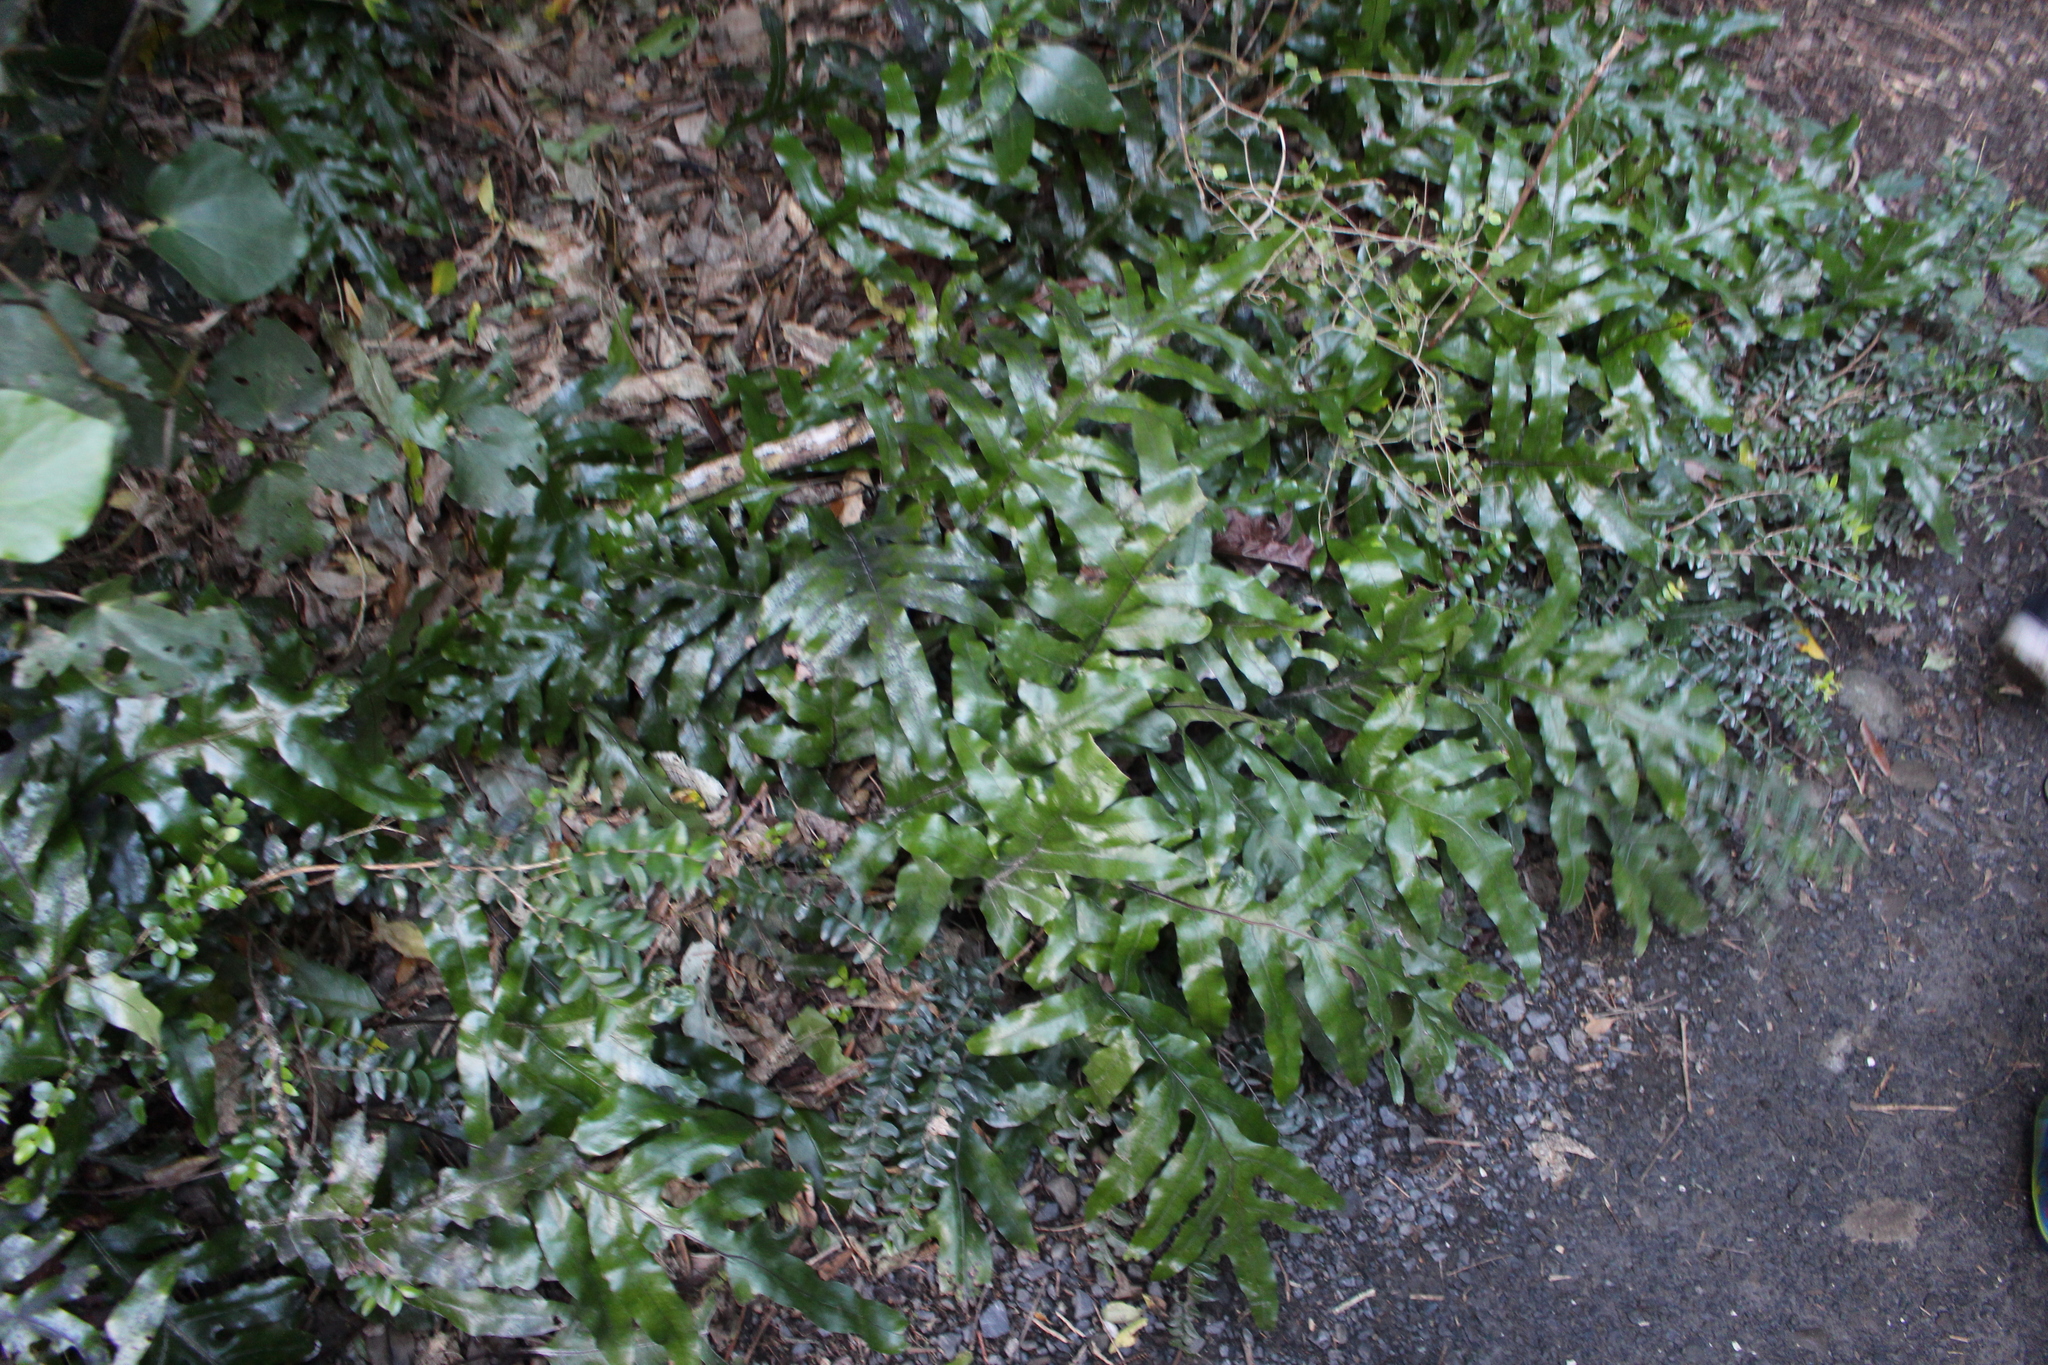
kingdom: Plantae
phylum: Tracheophyta
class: Polypodiopsida
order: Polypodiales
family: Polypodiaceae
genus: Lecanopteris
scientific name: Lecanopteris pustulata
